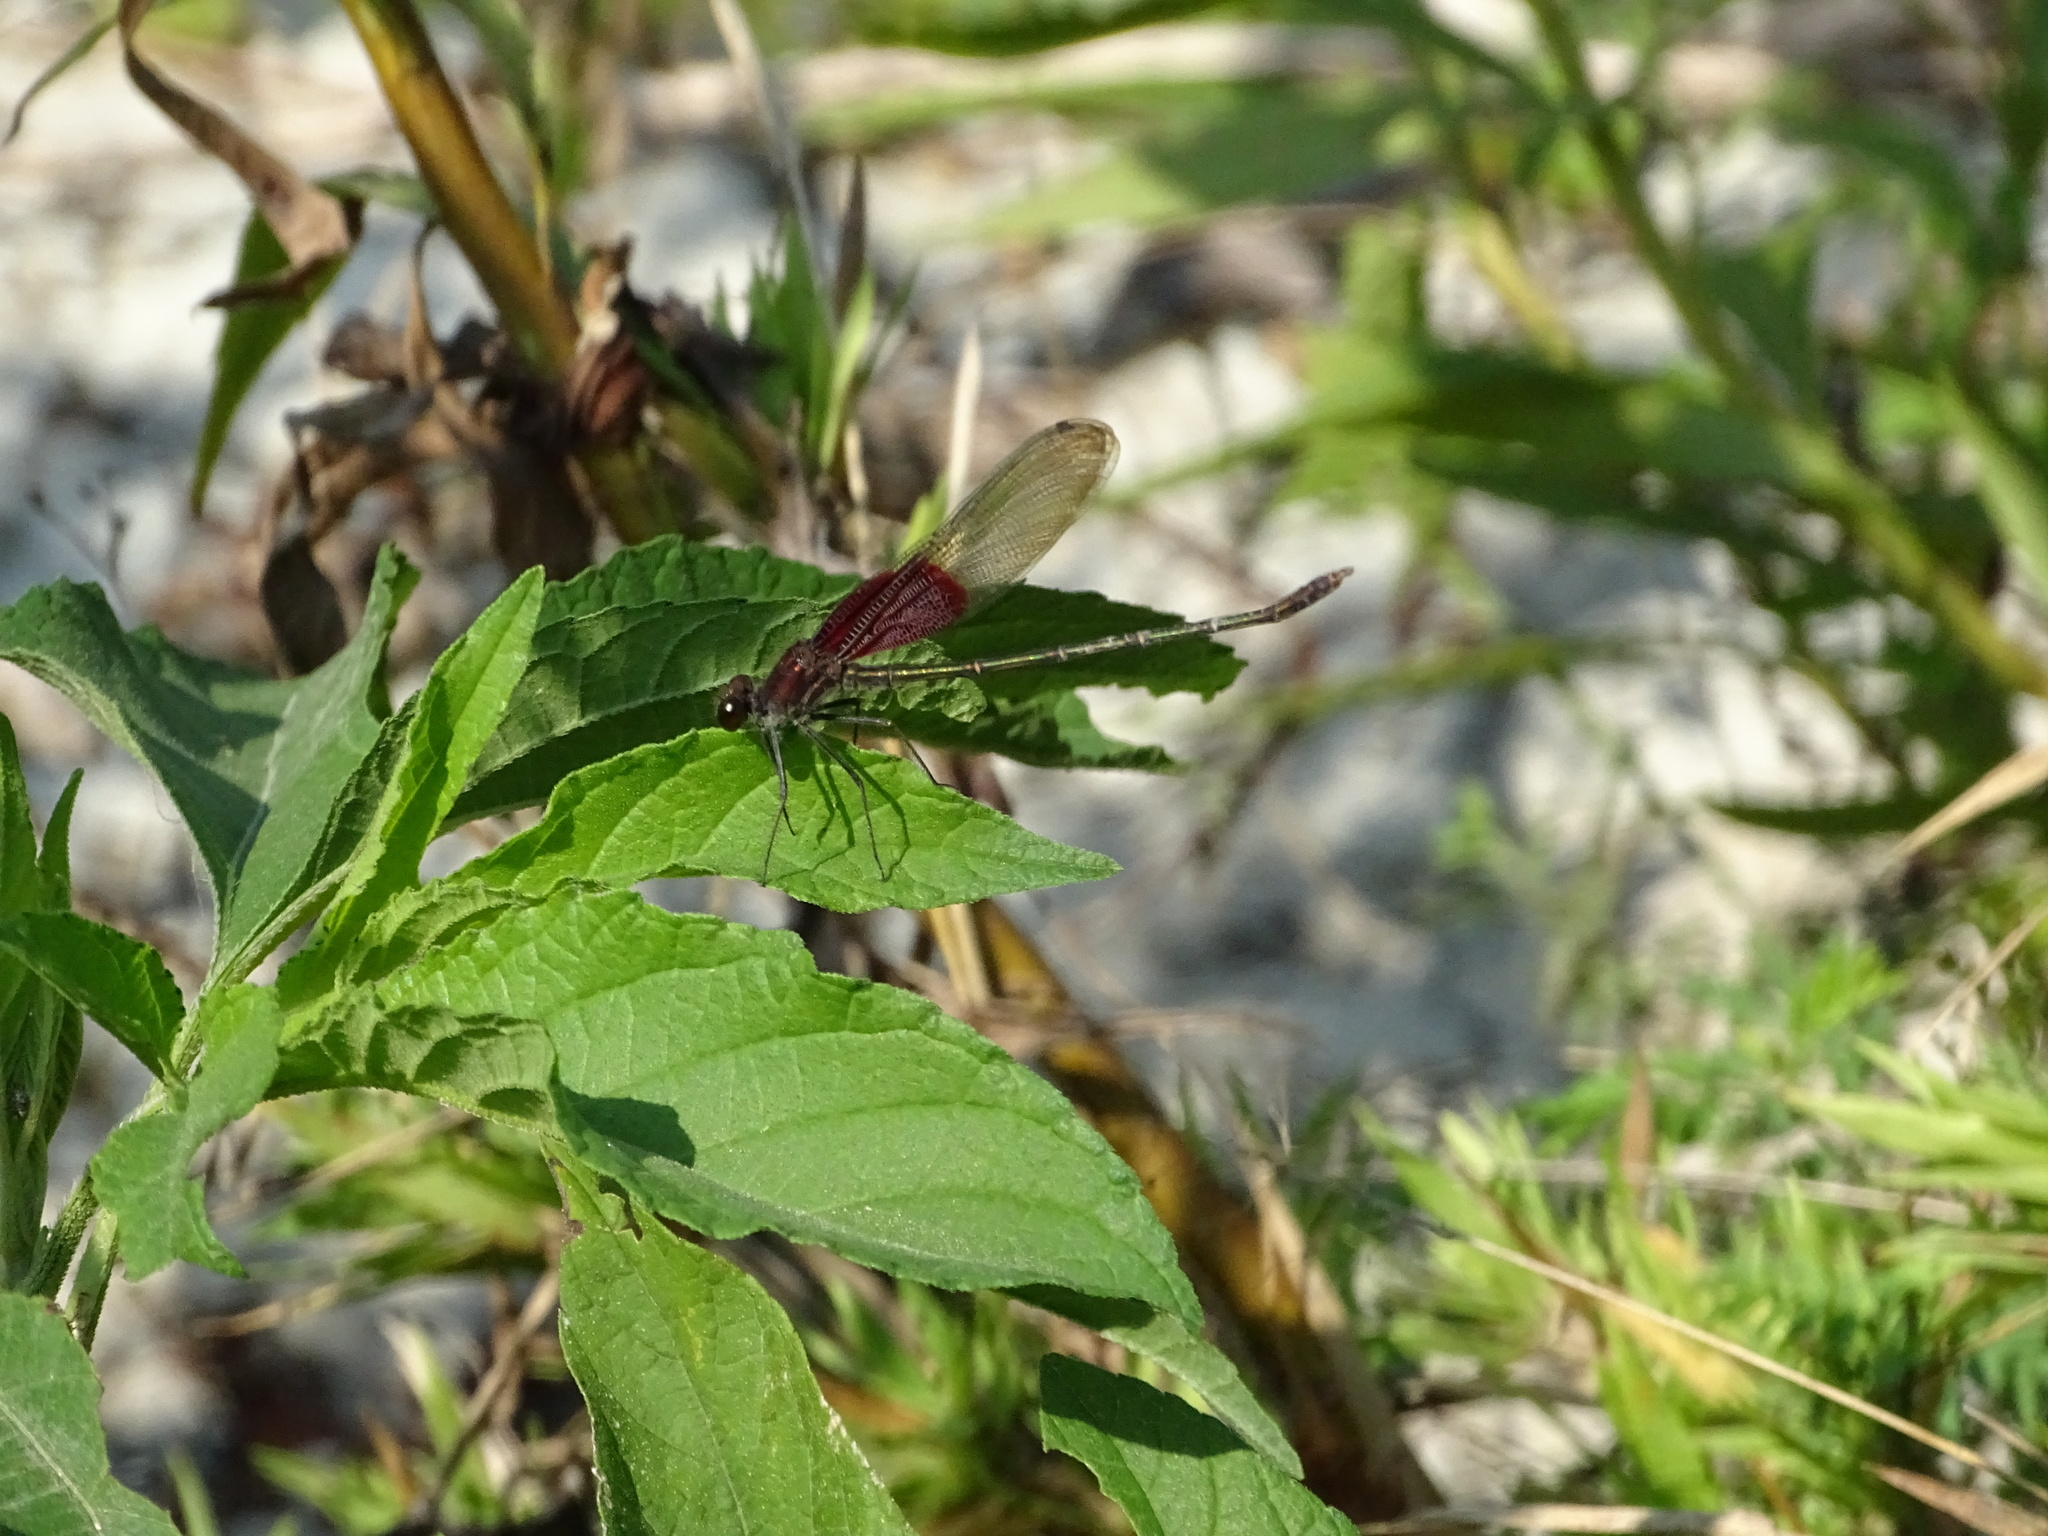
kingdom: Animalia
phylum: Arthropoda
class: Insecta
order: Odonata
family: Calopterygidae
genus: Hetaerina
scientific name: Hetaerina americana
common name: American rubyspot
